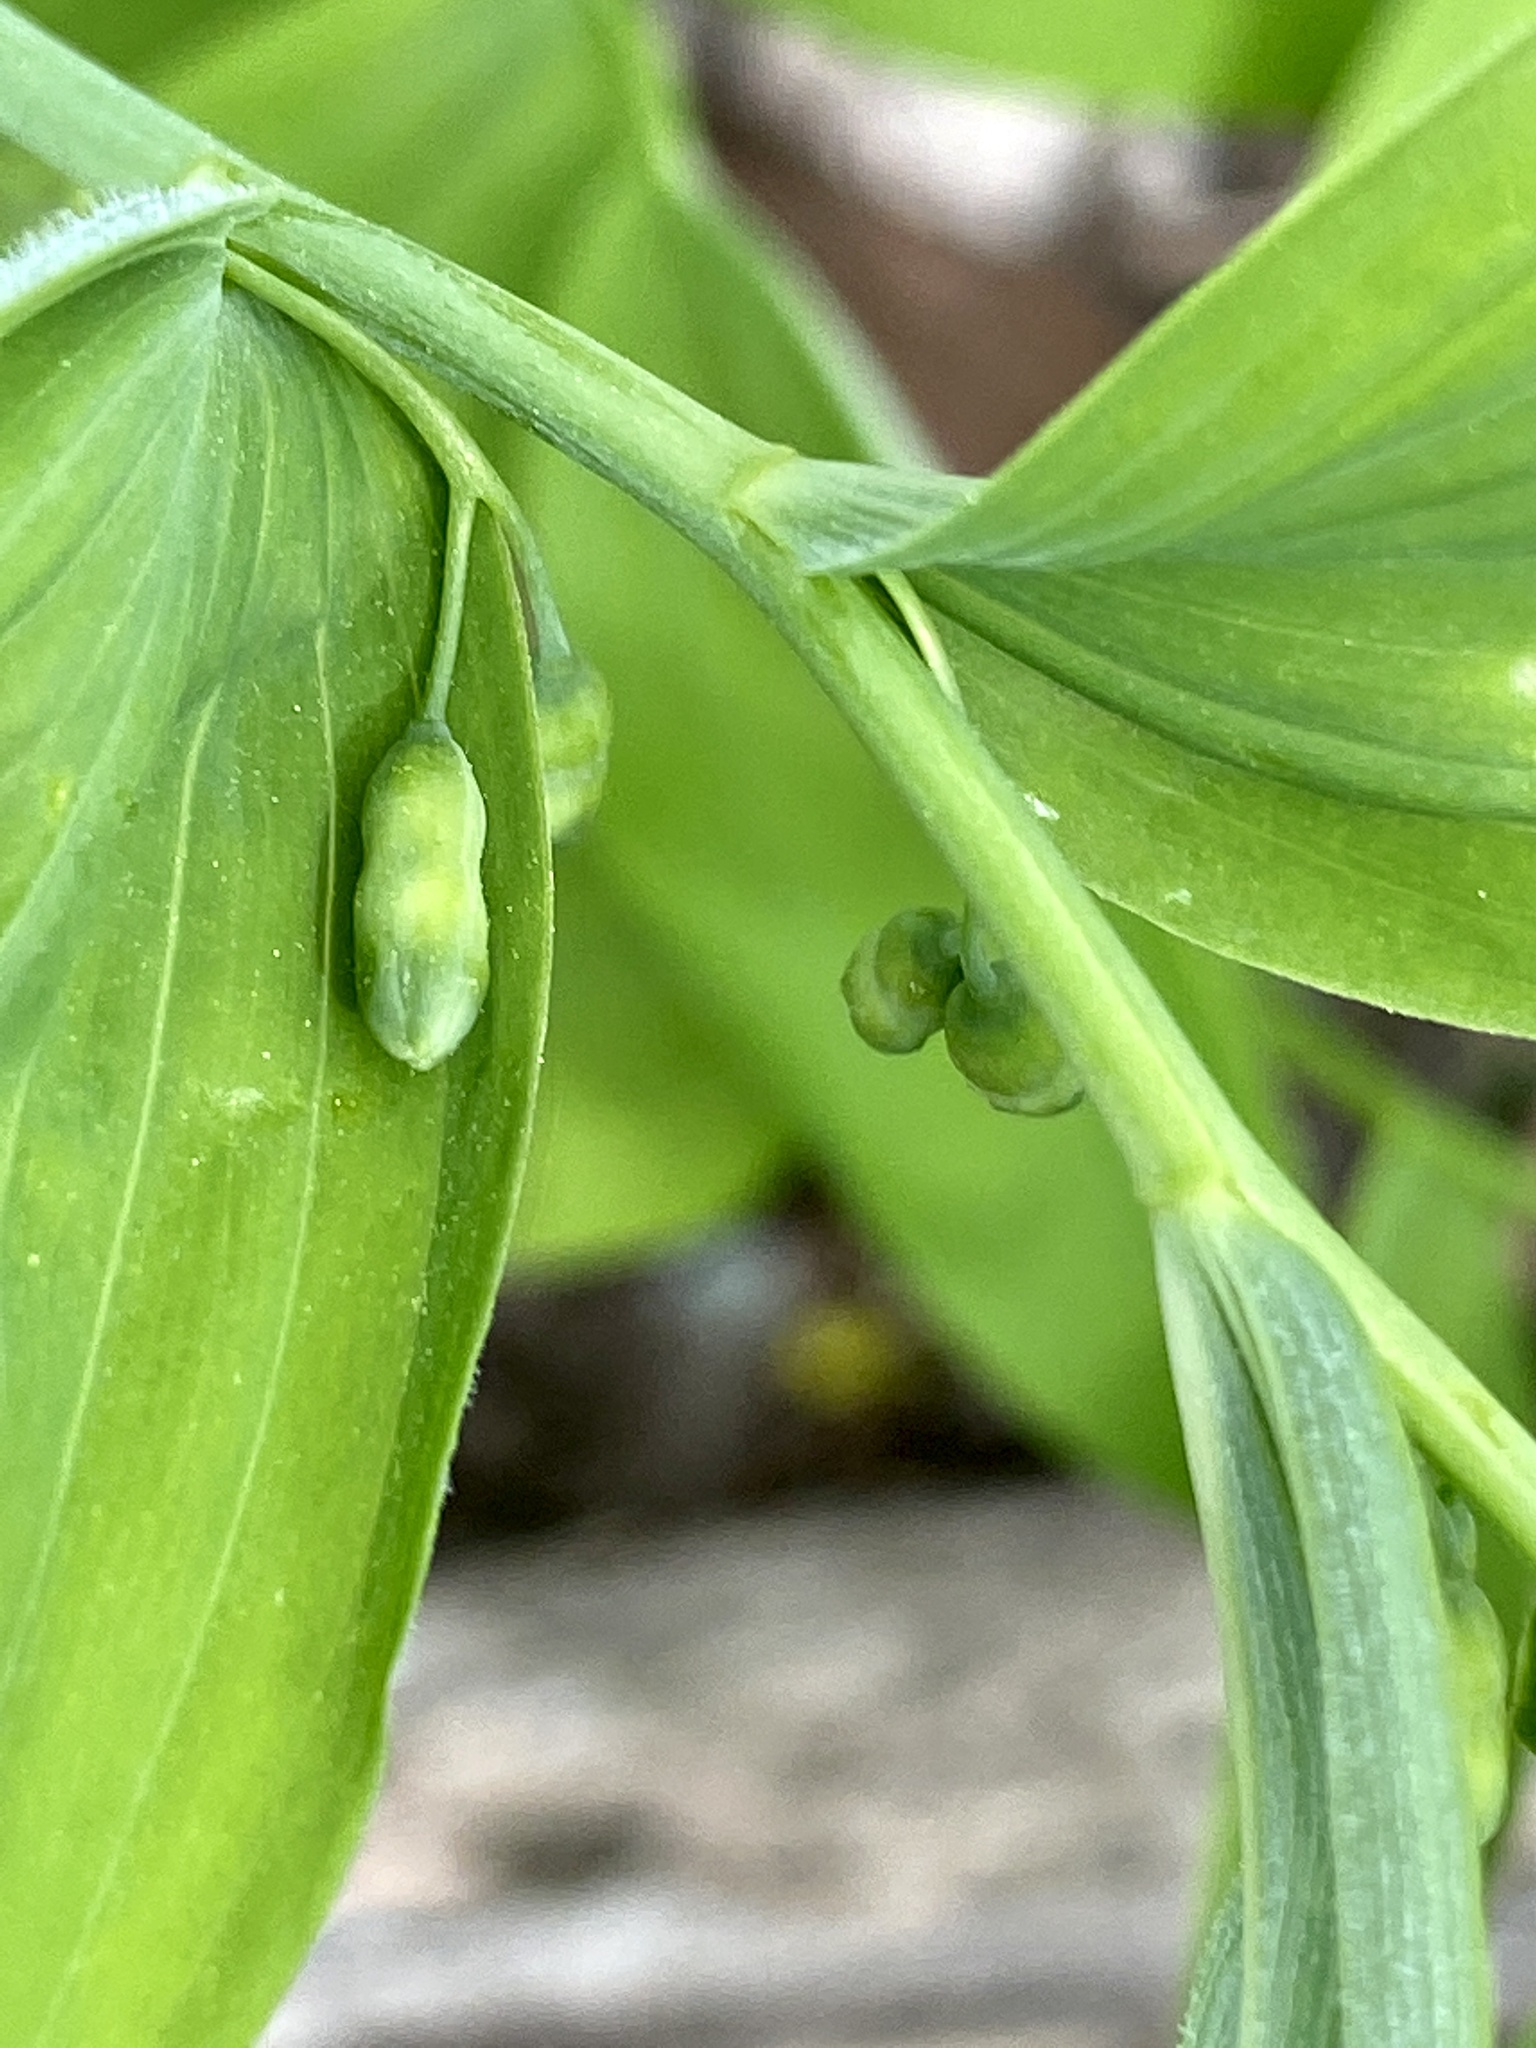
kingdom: Plantae
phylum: Tracheophyta
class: Liliopsida
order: Asparagales
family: Asparagaceae
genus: Polygonatum
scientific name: Polygonatum pubescens
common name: Downy solomon's seal
